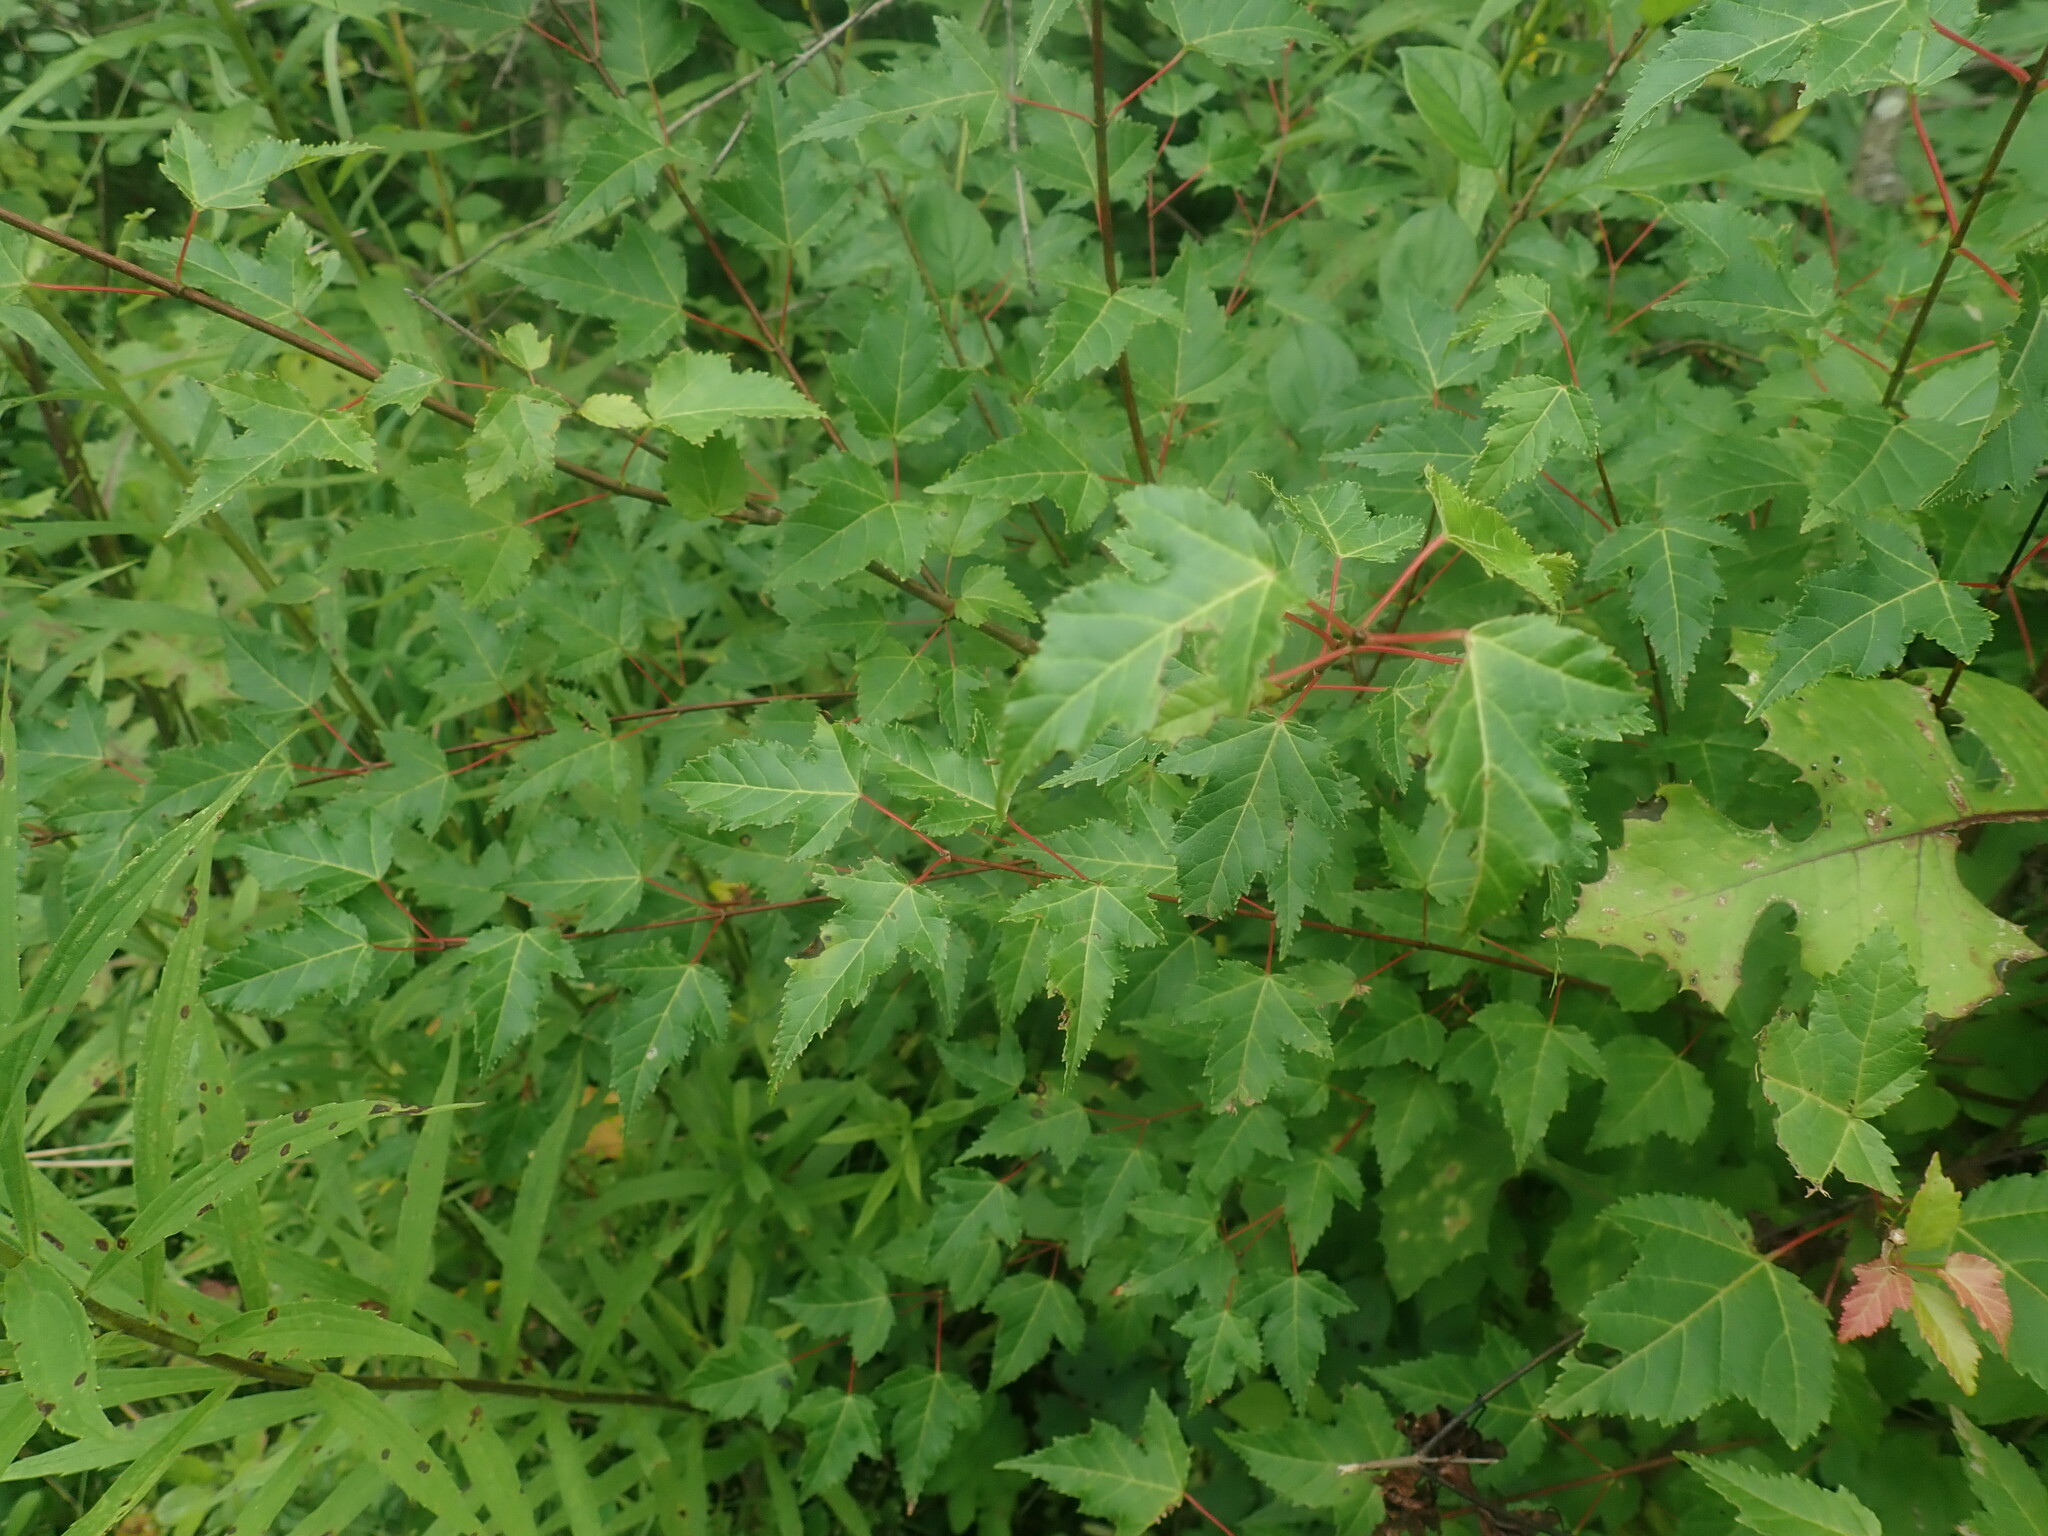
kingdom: Plantae
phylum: Tracheophyta
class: Magnoliopsida
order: Sapindales
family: Sapindaceae
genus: Acer
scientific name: Acer tataricum
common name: Tartar maple
